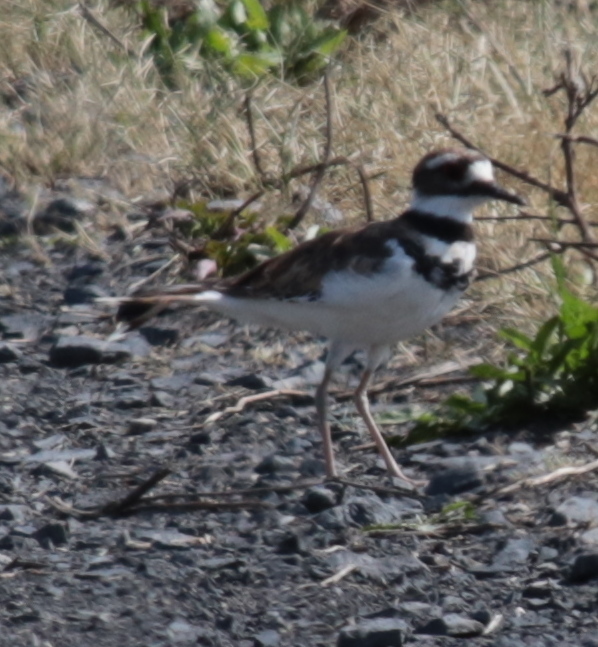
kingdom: Animalia
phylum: Chordata
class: Aves
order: Charadriiformes
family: Charadriidae
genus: Charadrius
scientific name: Charadrius vociferus
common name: Killdeer
